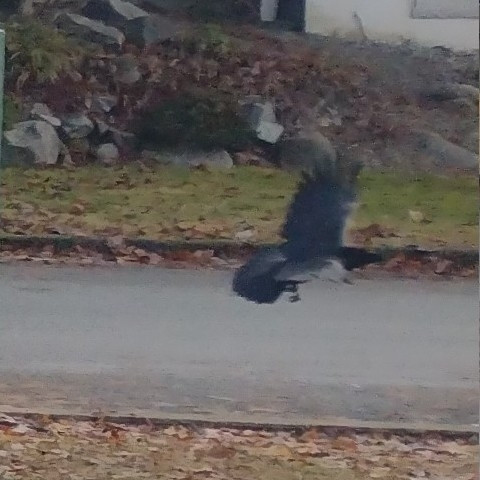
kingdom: Animalia
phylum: Chordata
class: Aves
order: Passeriformes
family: Corvidae
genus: Corvus
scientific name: Corvus brachyrhynchos
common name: American crow
